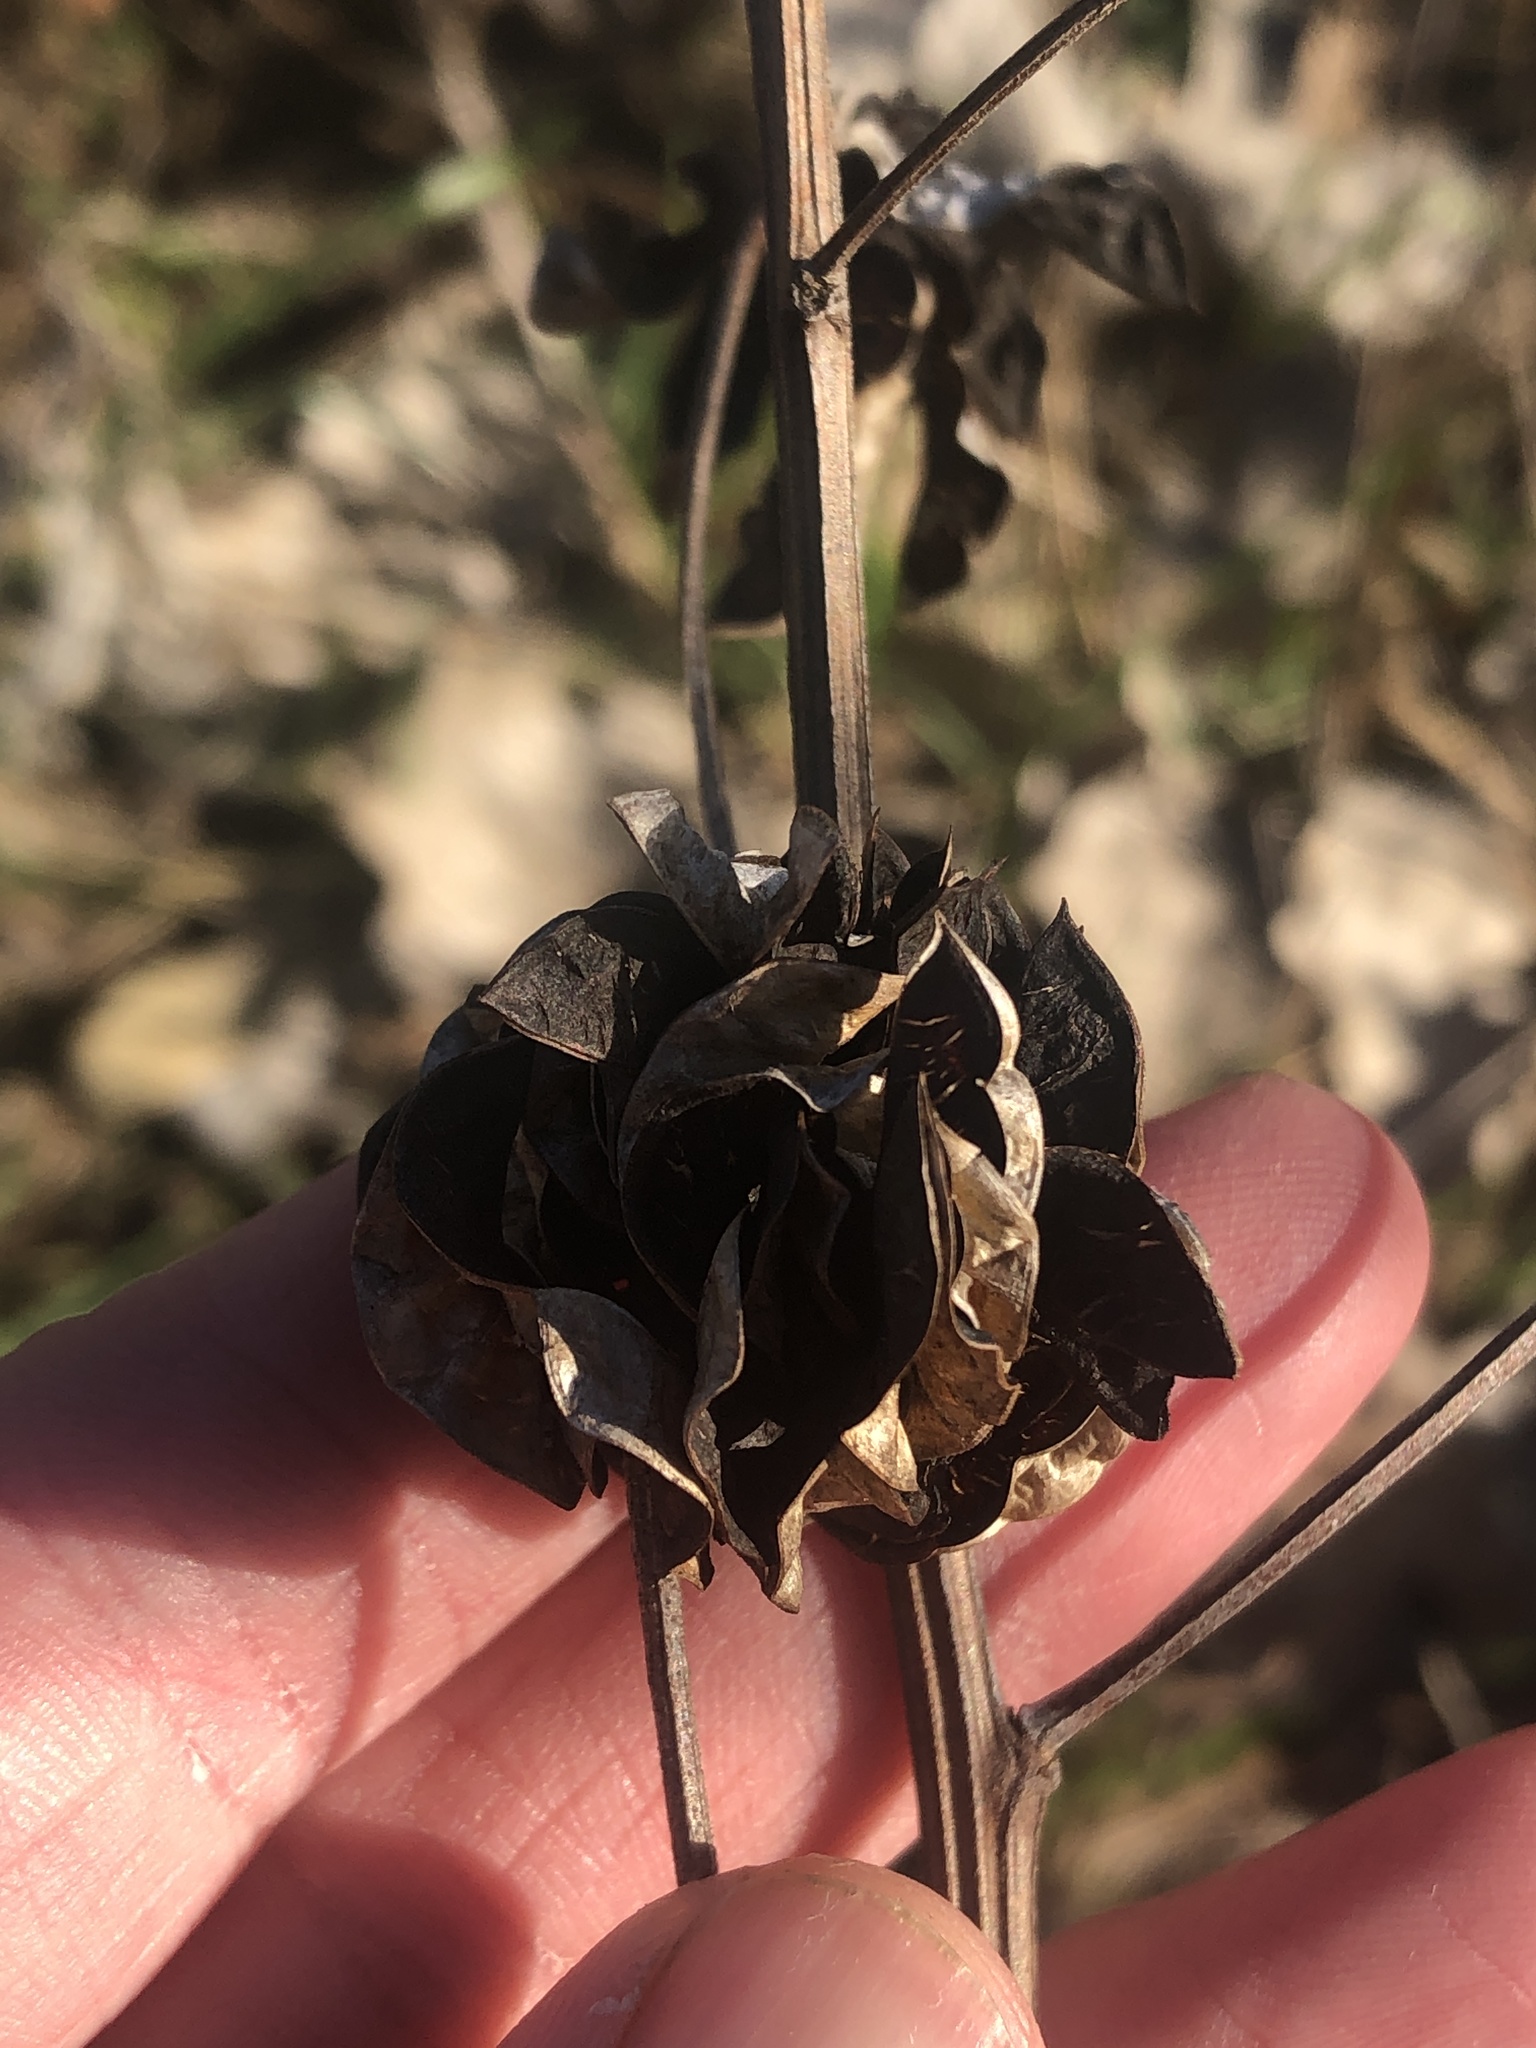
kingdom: Plantae
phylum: Tracheophyta
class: Magnoliopsida
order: Fabales
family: Fabaceae
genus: Desmanthus
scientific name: Desmanthus illinoensis
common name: Illinois bundle-flower
